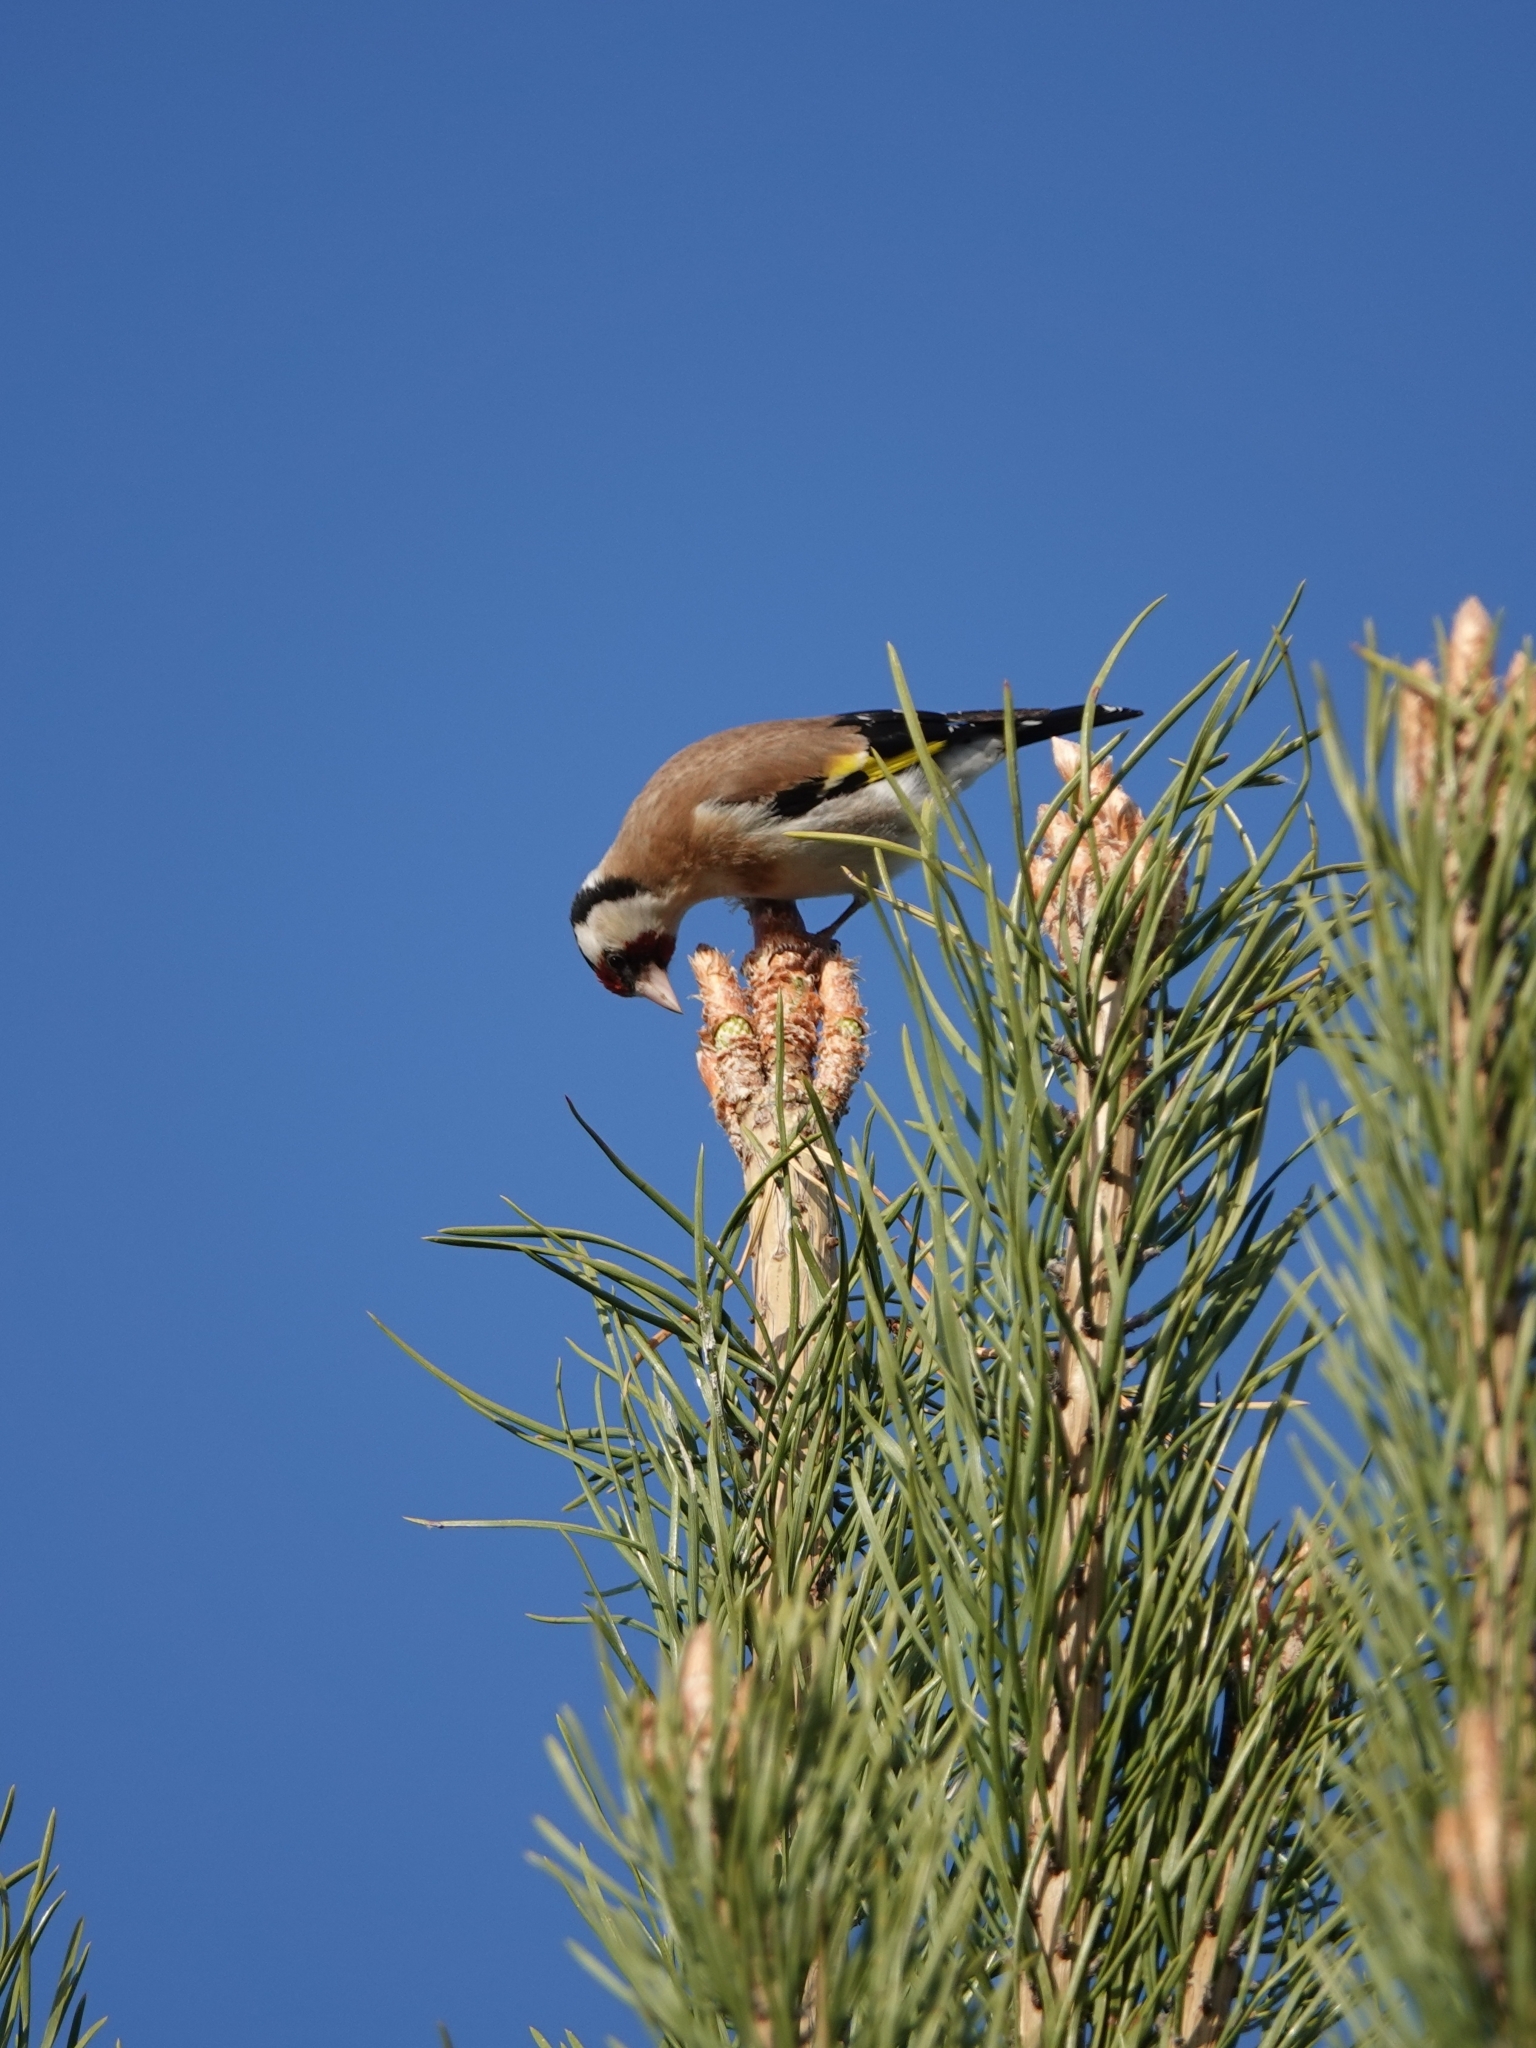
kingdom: Animalia
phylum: Chordata
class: Aves
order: Passeriformes
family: Fringillidae
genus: Carduelis
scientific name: Carduelis carduelis
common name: European goldfinch
